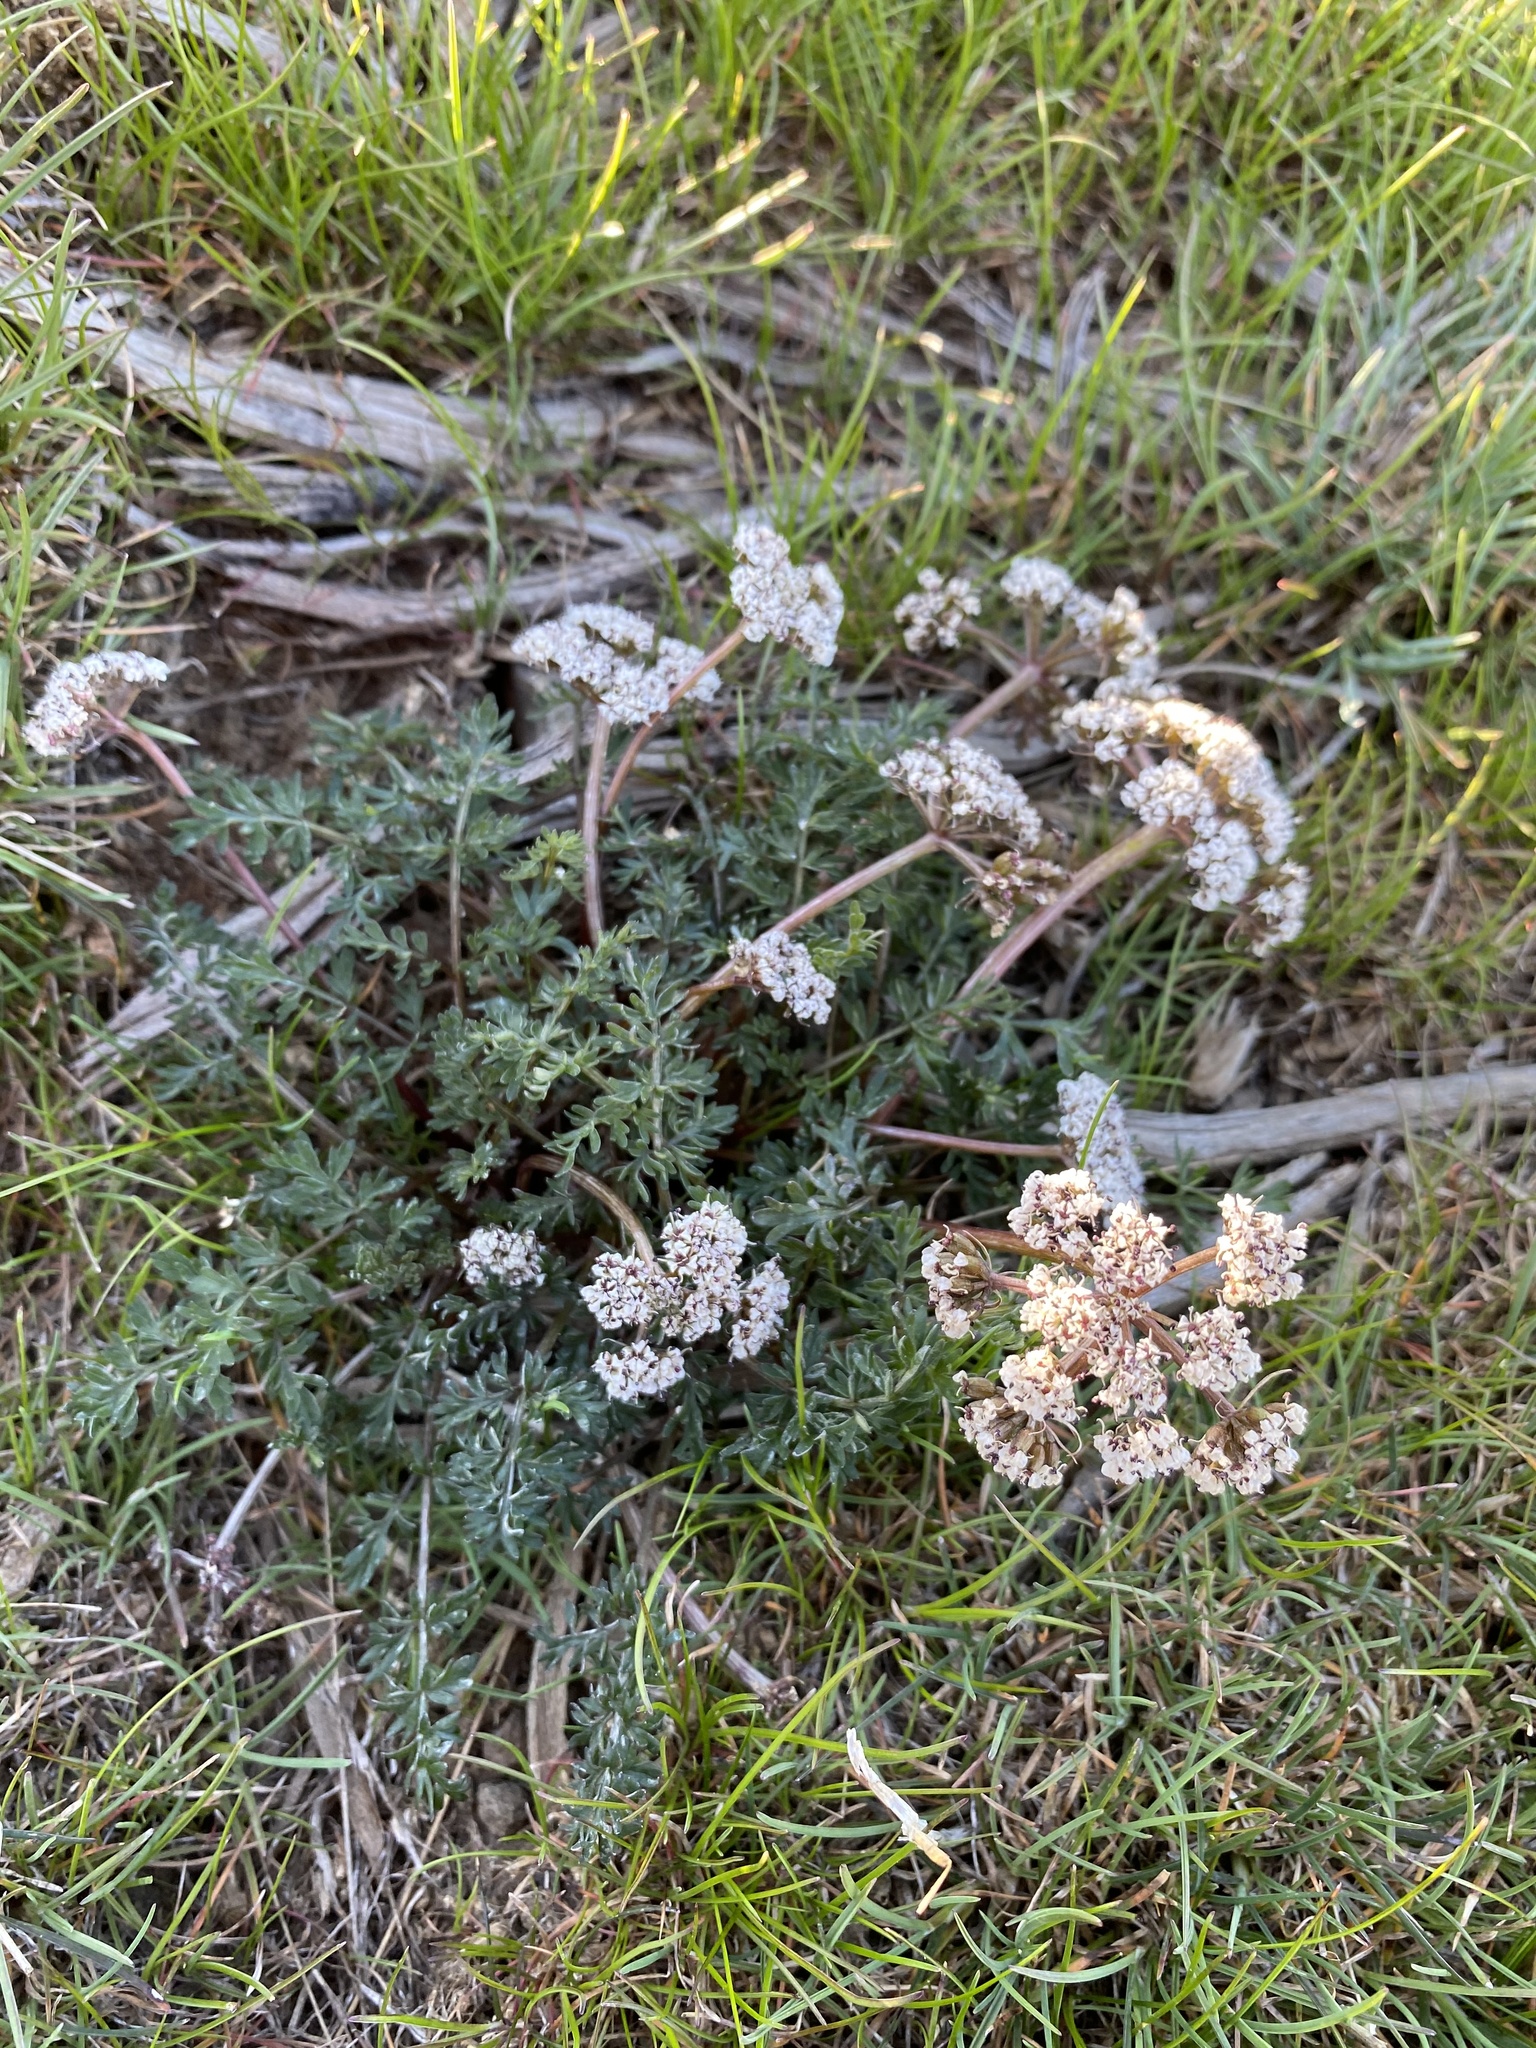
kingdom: Plantae
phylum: Tracheophyta
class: Magnoliopsida
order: Apiales
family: Apiaceae
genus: Lomatium
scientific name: Lomatium canbyi
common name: Chucklusa
